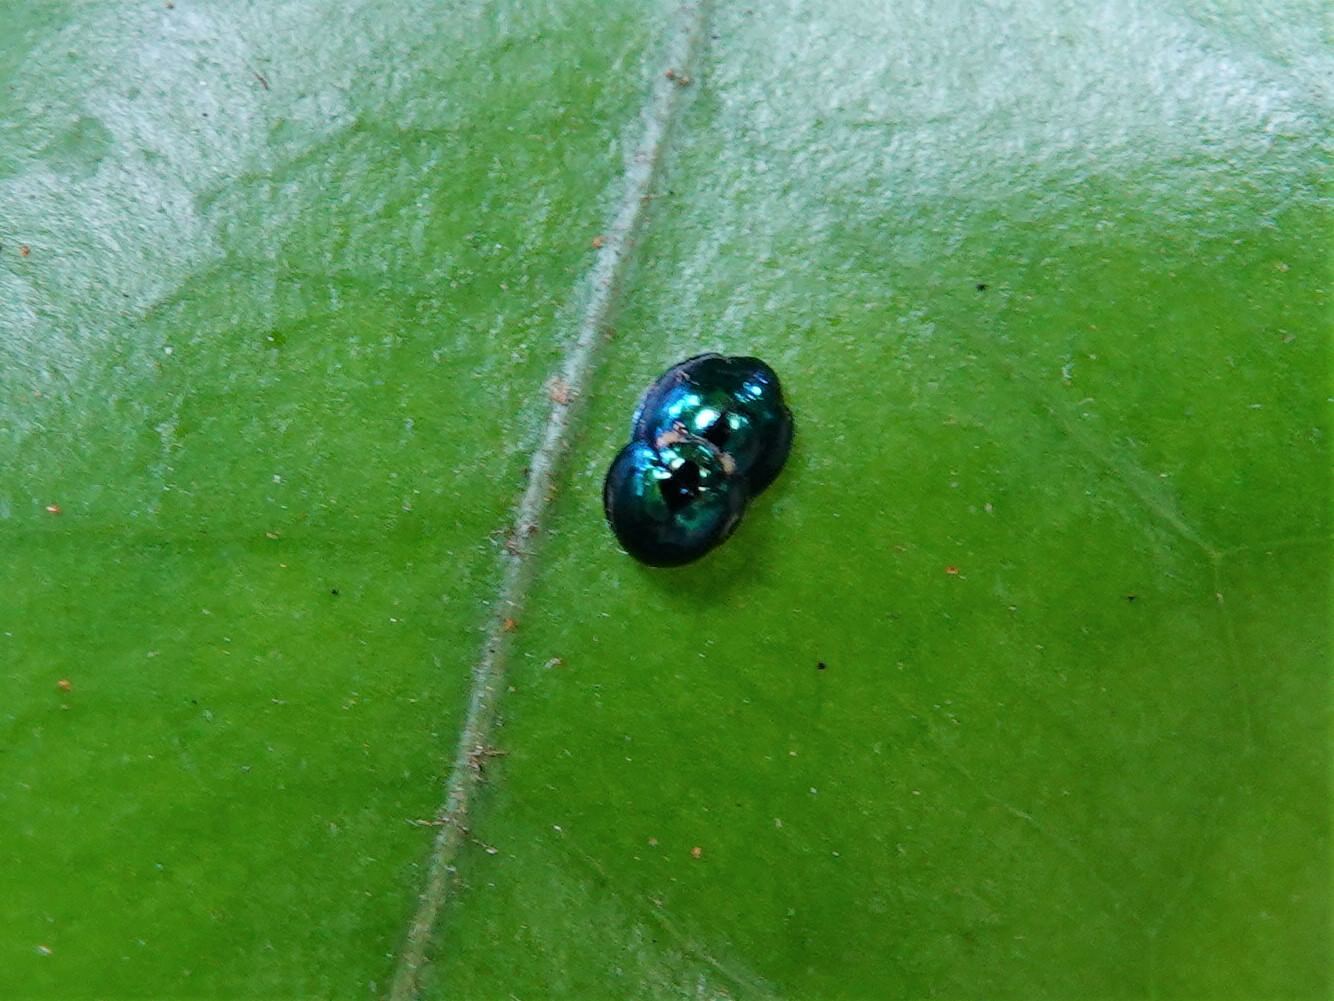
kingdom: Animalia
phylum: Arthropoda
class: Insecta
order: Coleoptera
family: Coccinellidae
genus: Halmus
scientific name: Halmus chalybeus
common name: Steel blue ladybird beetle
